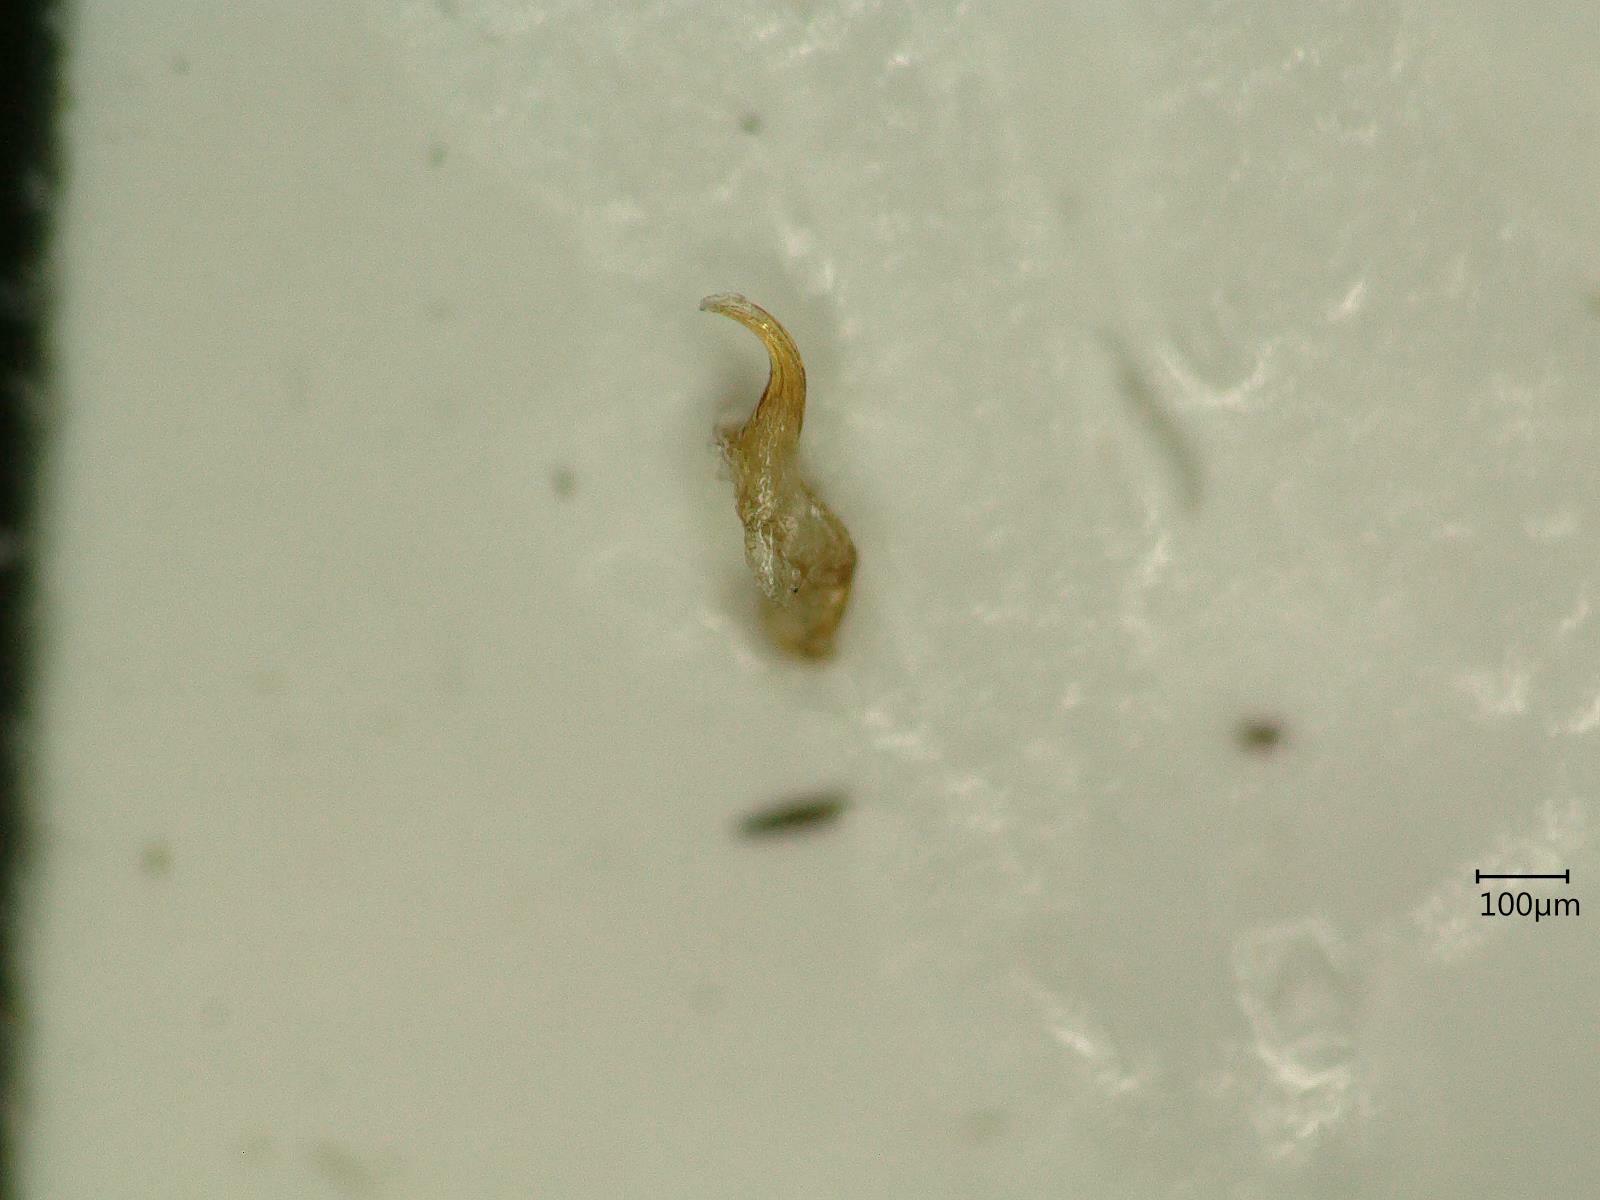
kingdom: Animalia
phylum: Arthropoda
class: Insecta
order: Hemiptera
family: Cicadellidae
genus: Oncopsis
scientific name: Oncopsis carpini
